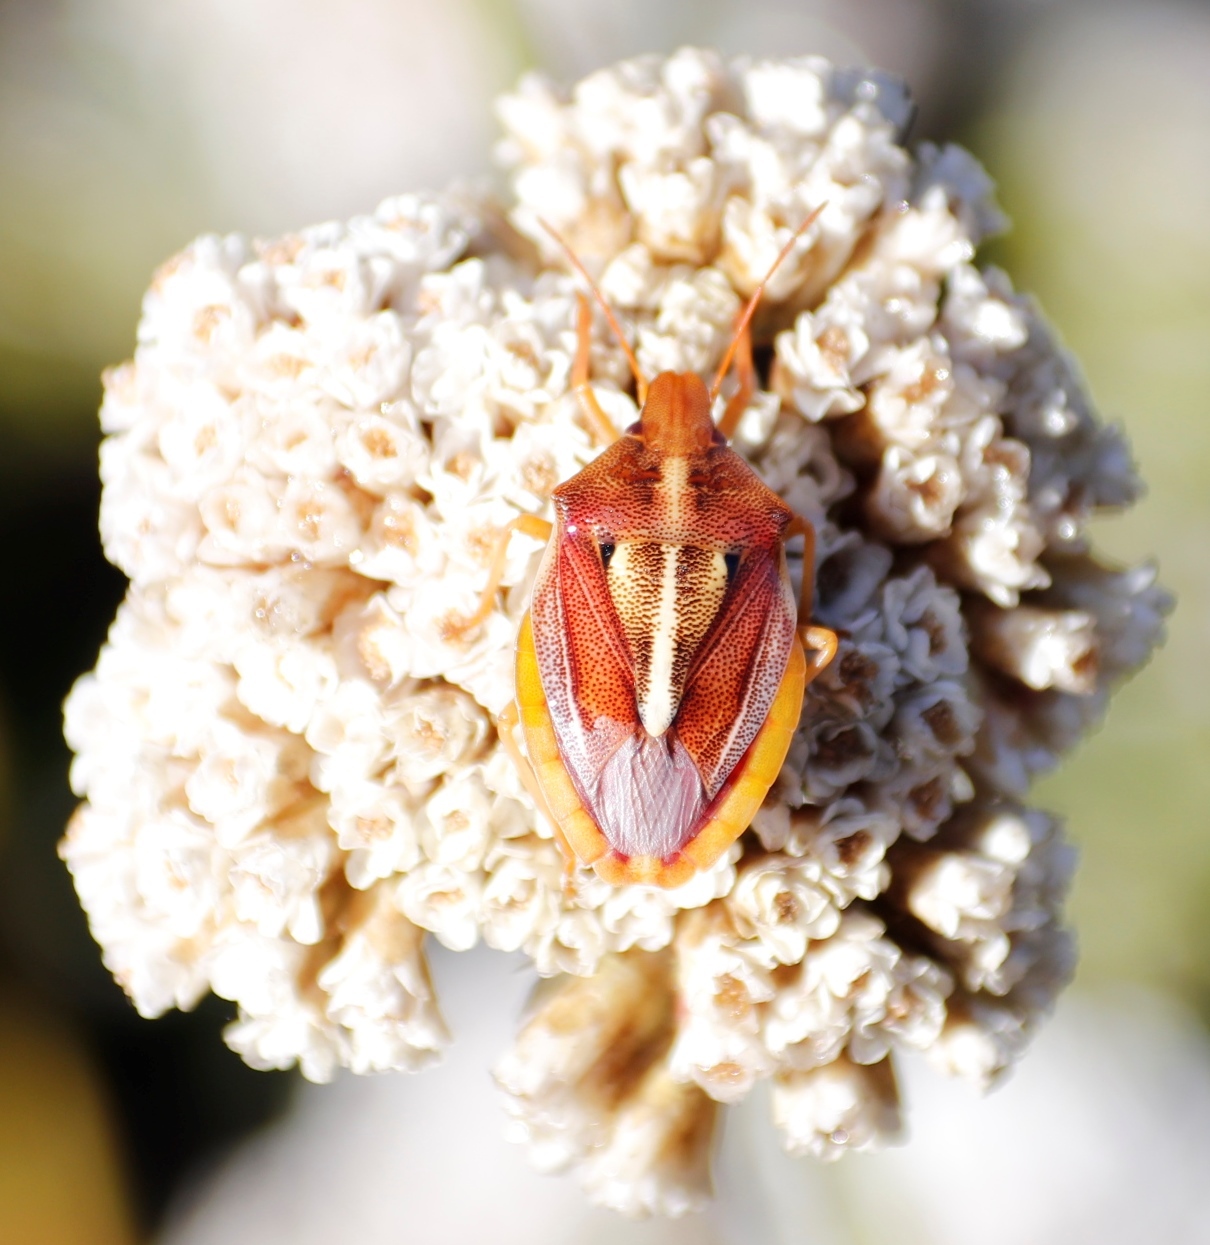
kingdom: Animalia
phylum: Arthropoda
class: Insecta
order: Hemiptera
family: Pentatomidae
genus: Tropicorypha
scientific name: Tropicorypha
